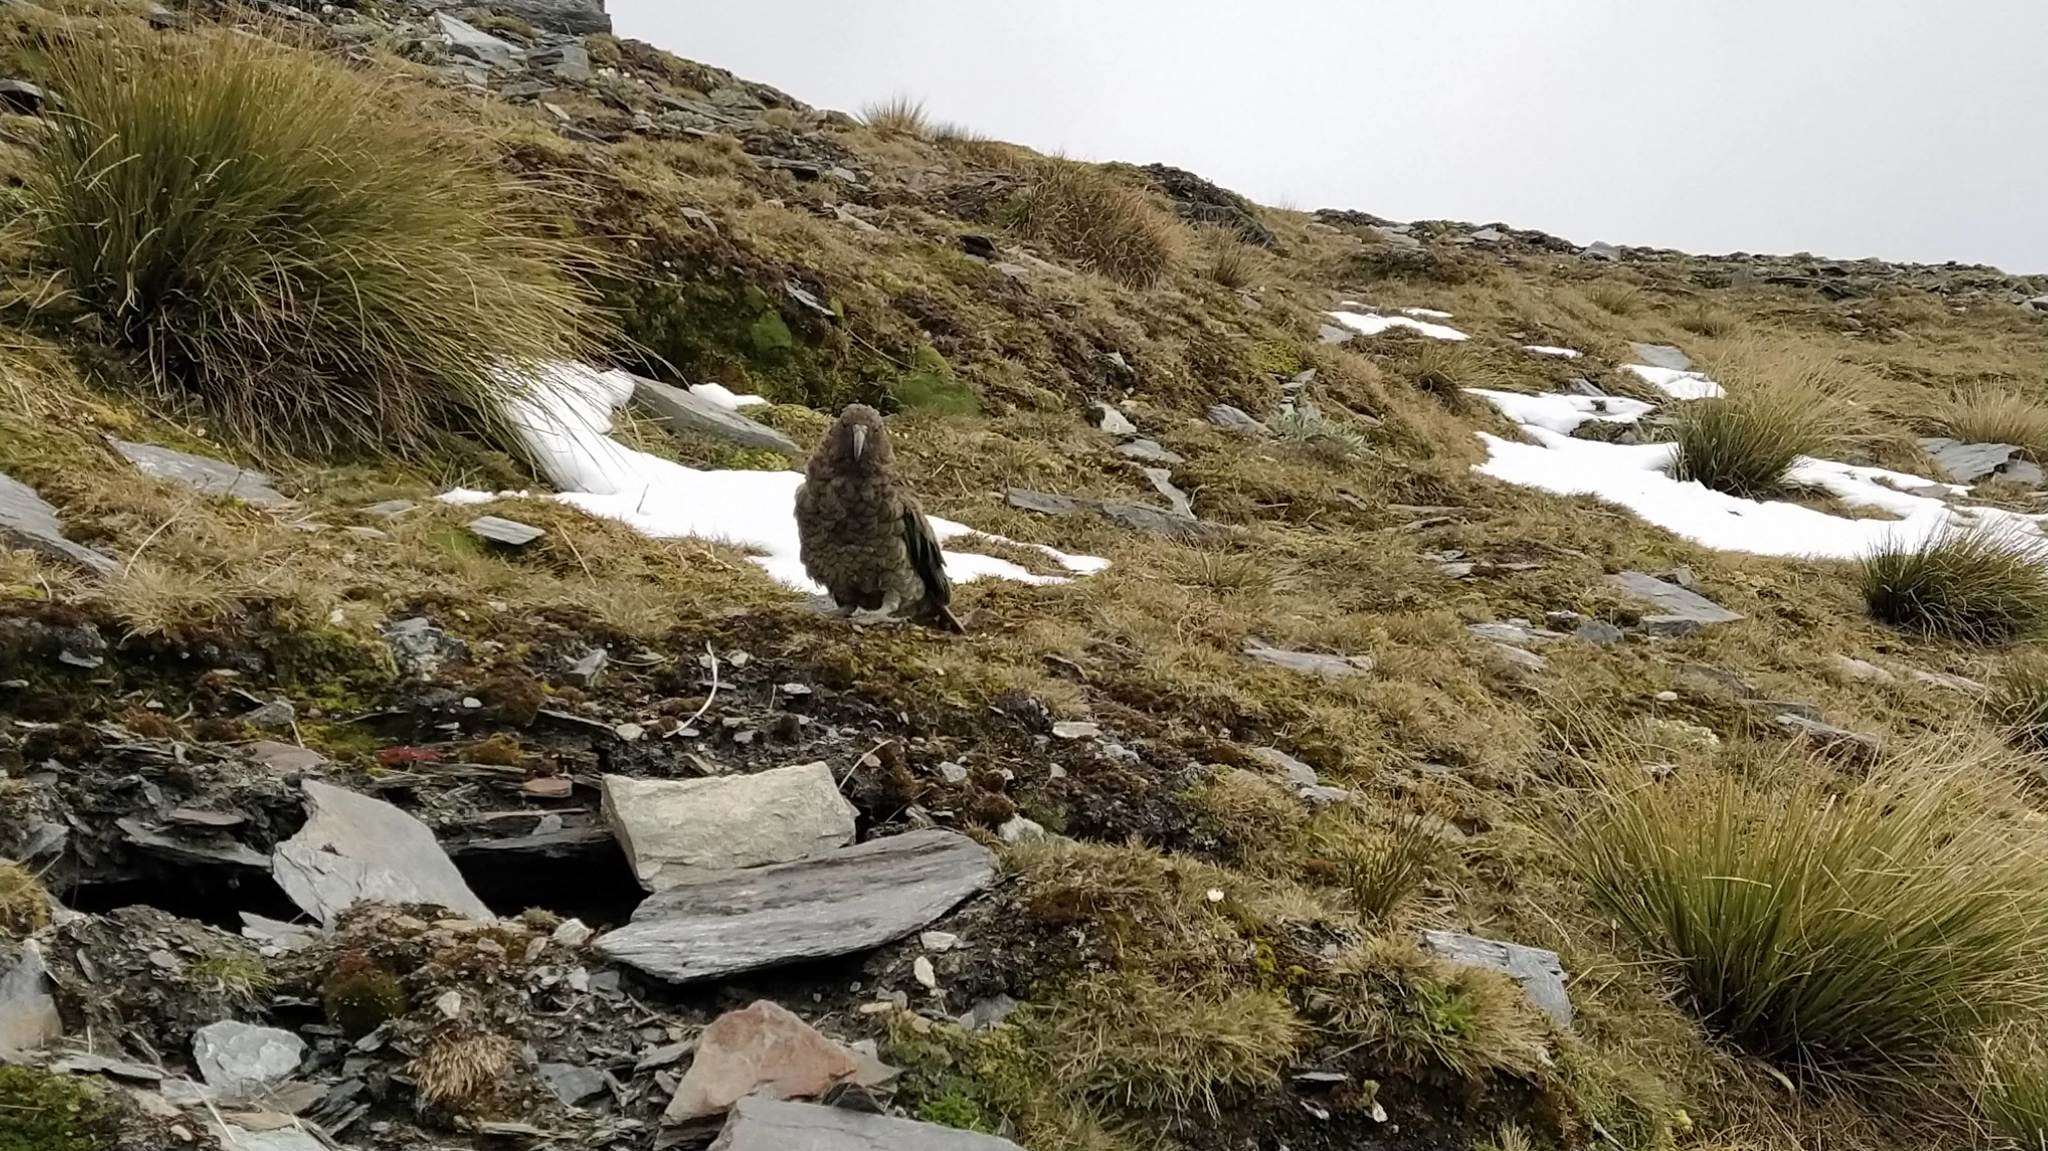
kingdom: Animalia
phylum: Chordata
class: Aves
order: Psittaciformes
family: Psittacidae
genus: Nestor
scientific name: Nestor notabilis
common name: Kea
